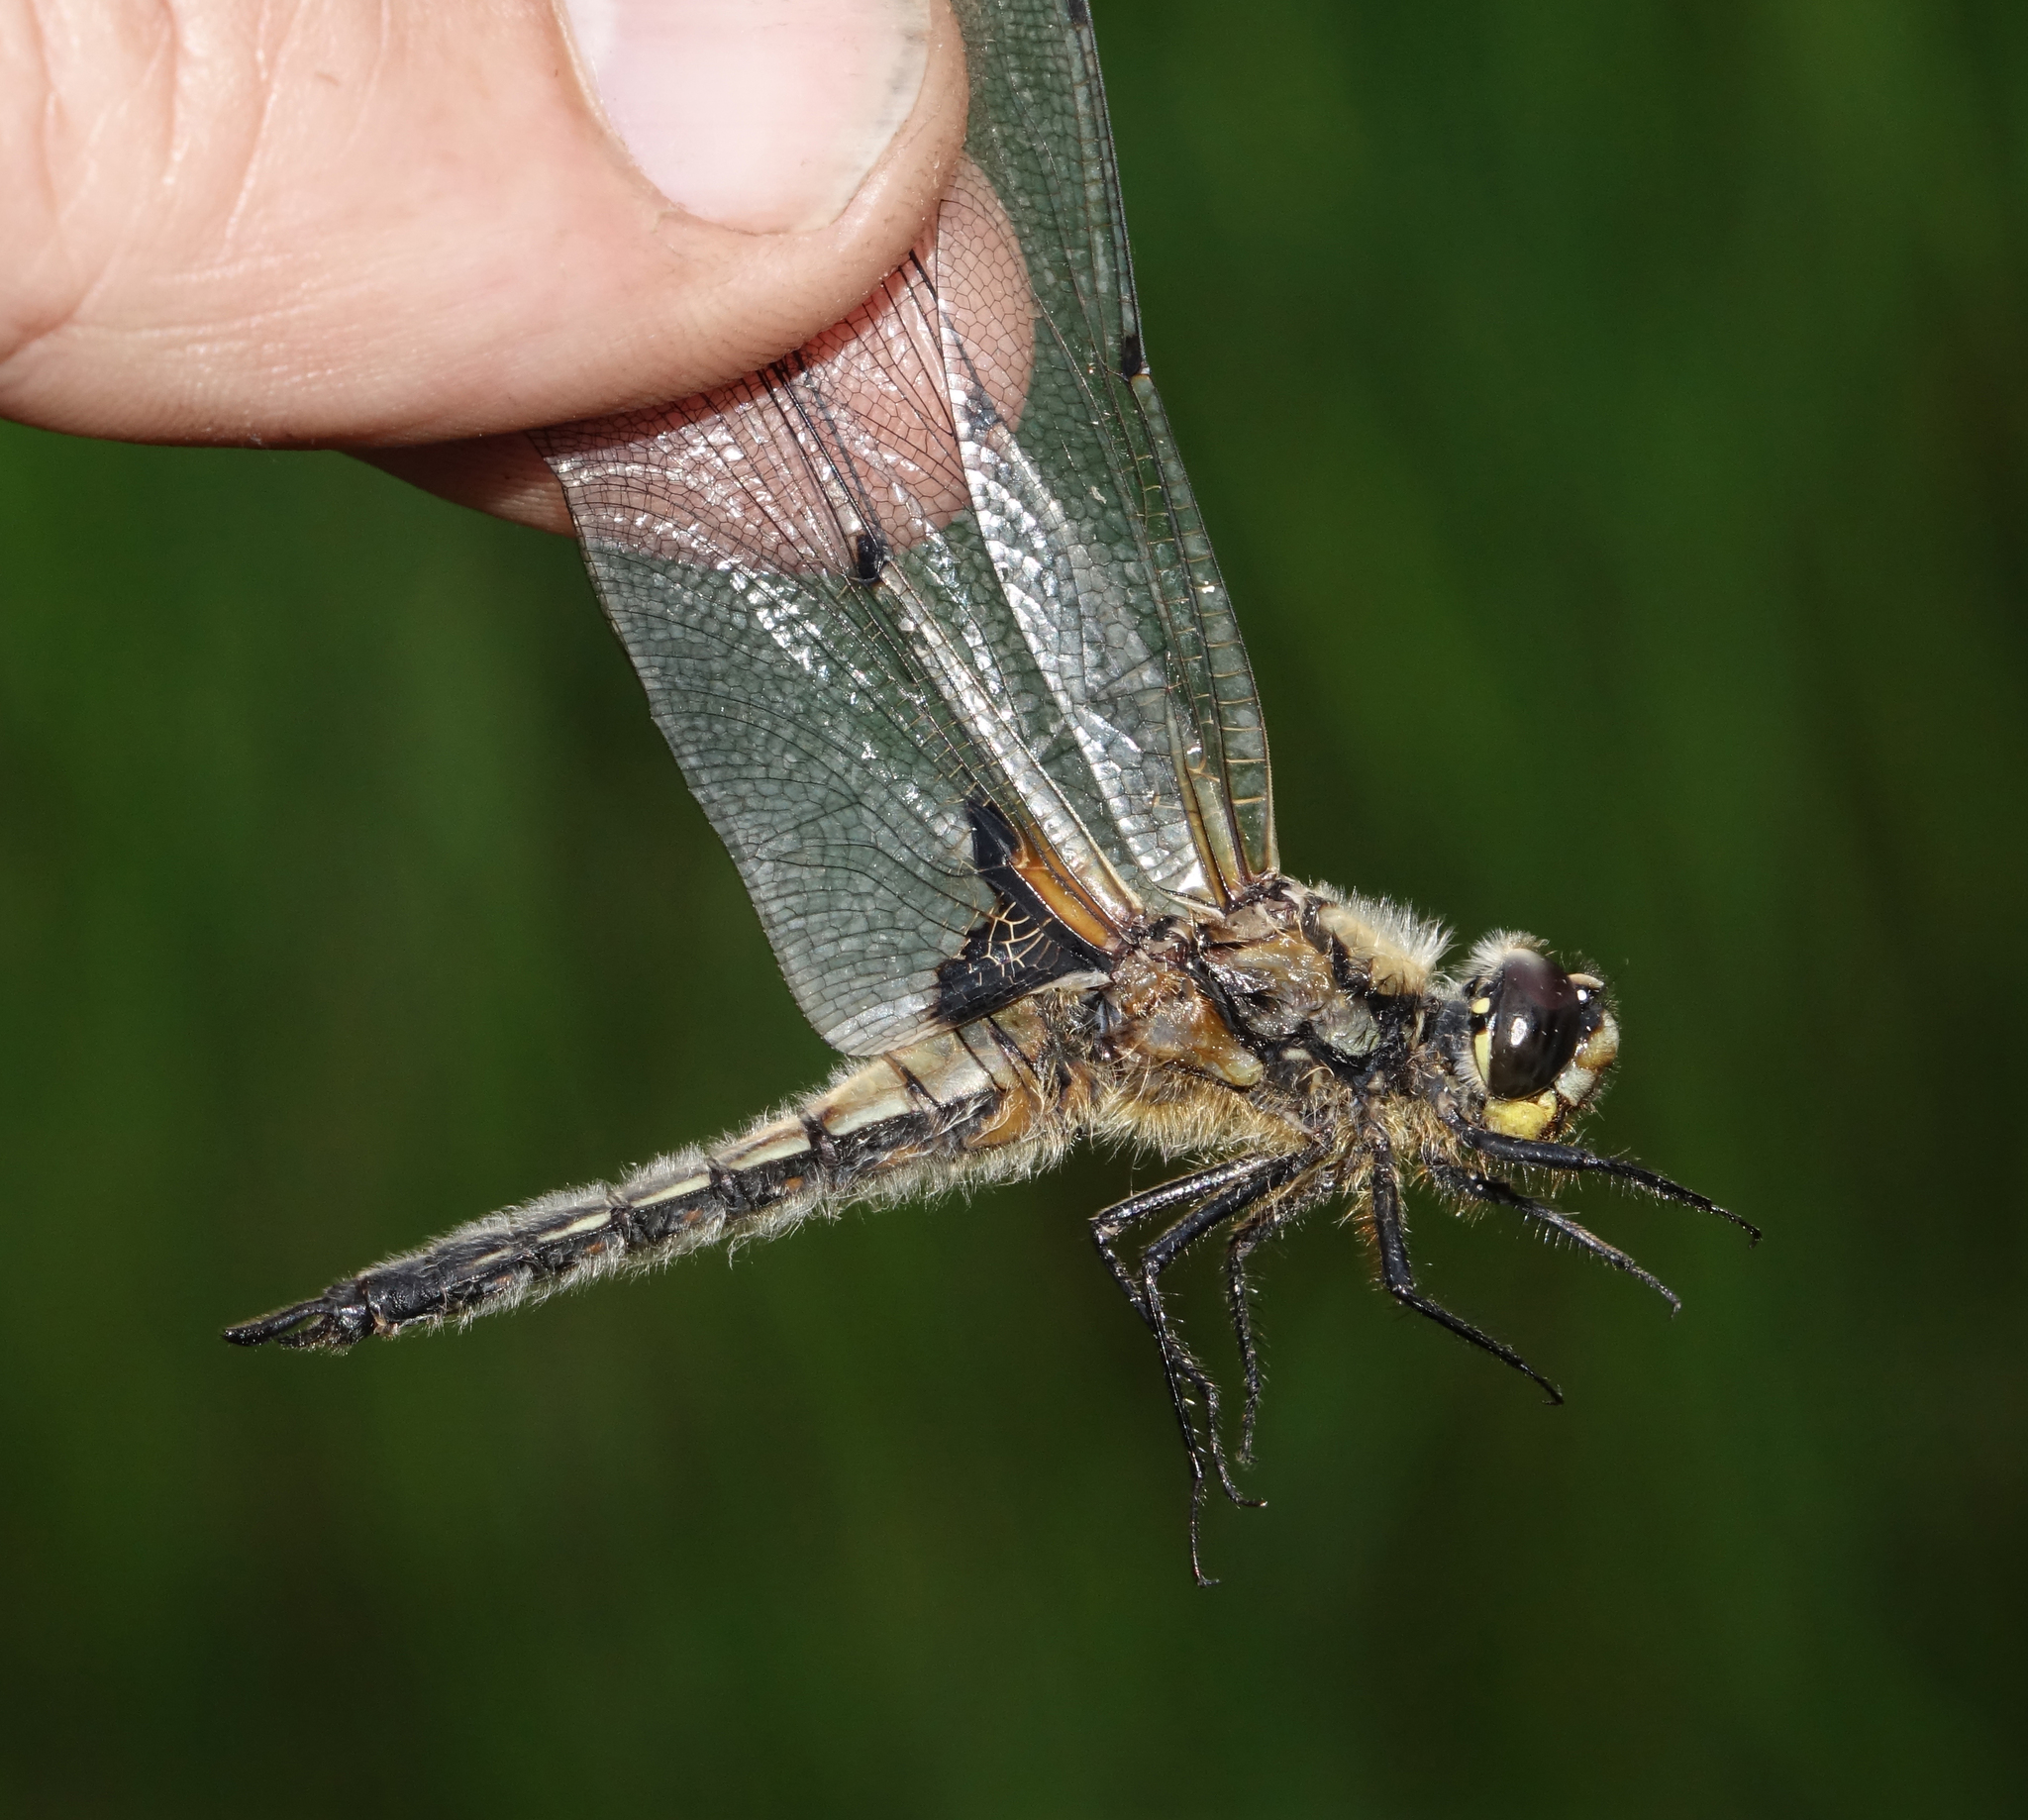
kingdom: Animalia
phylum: Arthropoda
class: Insecta
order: Odonata
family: Libellulidae
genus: Libellula
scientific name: Libellula quadrimaculata
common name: Four-spotted chaser
